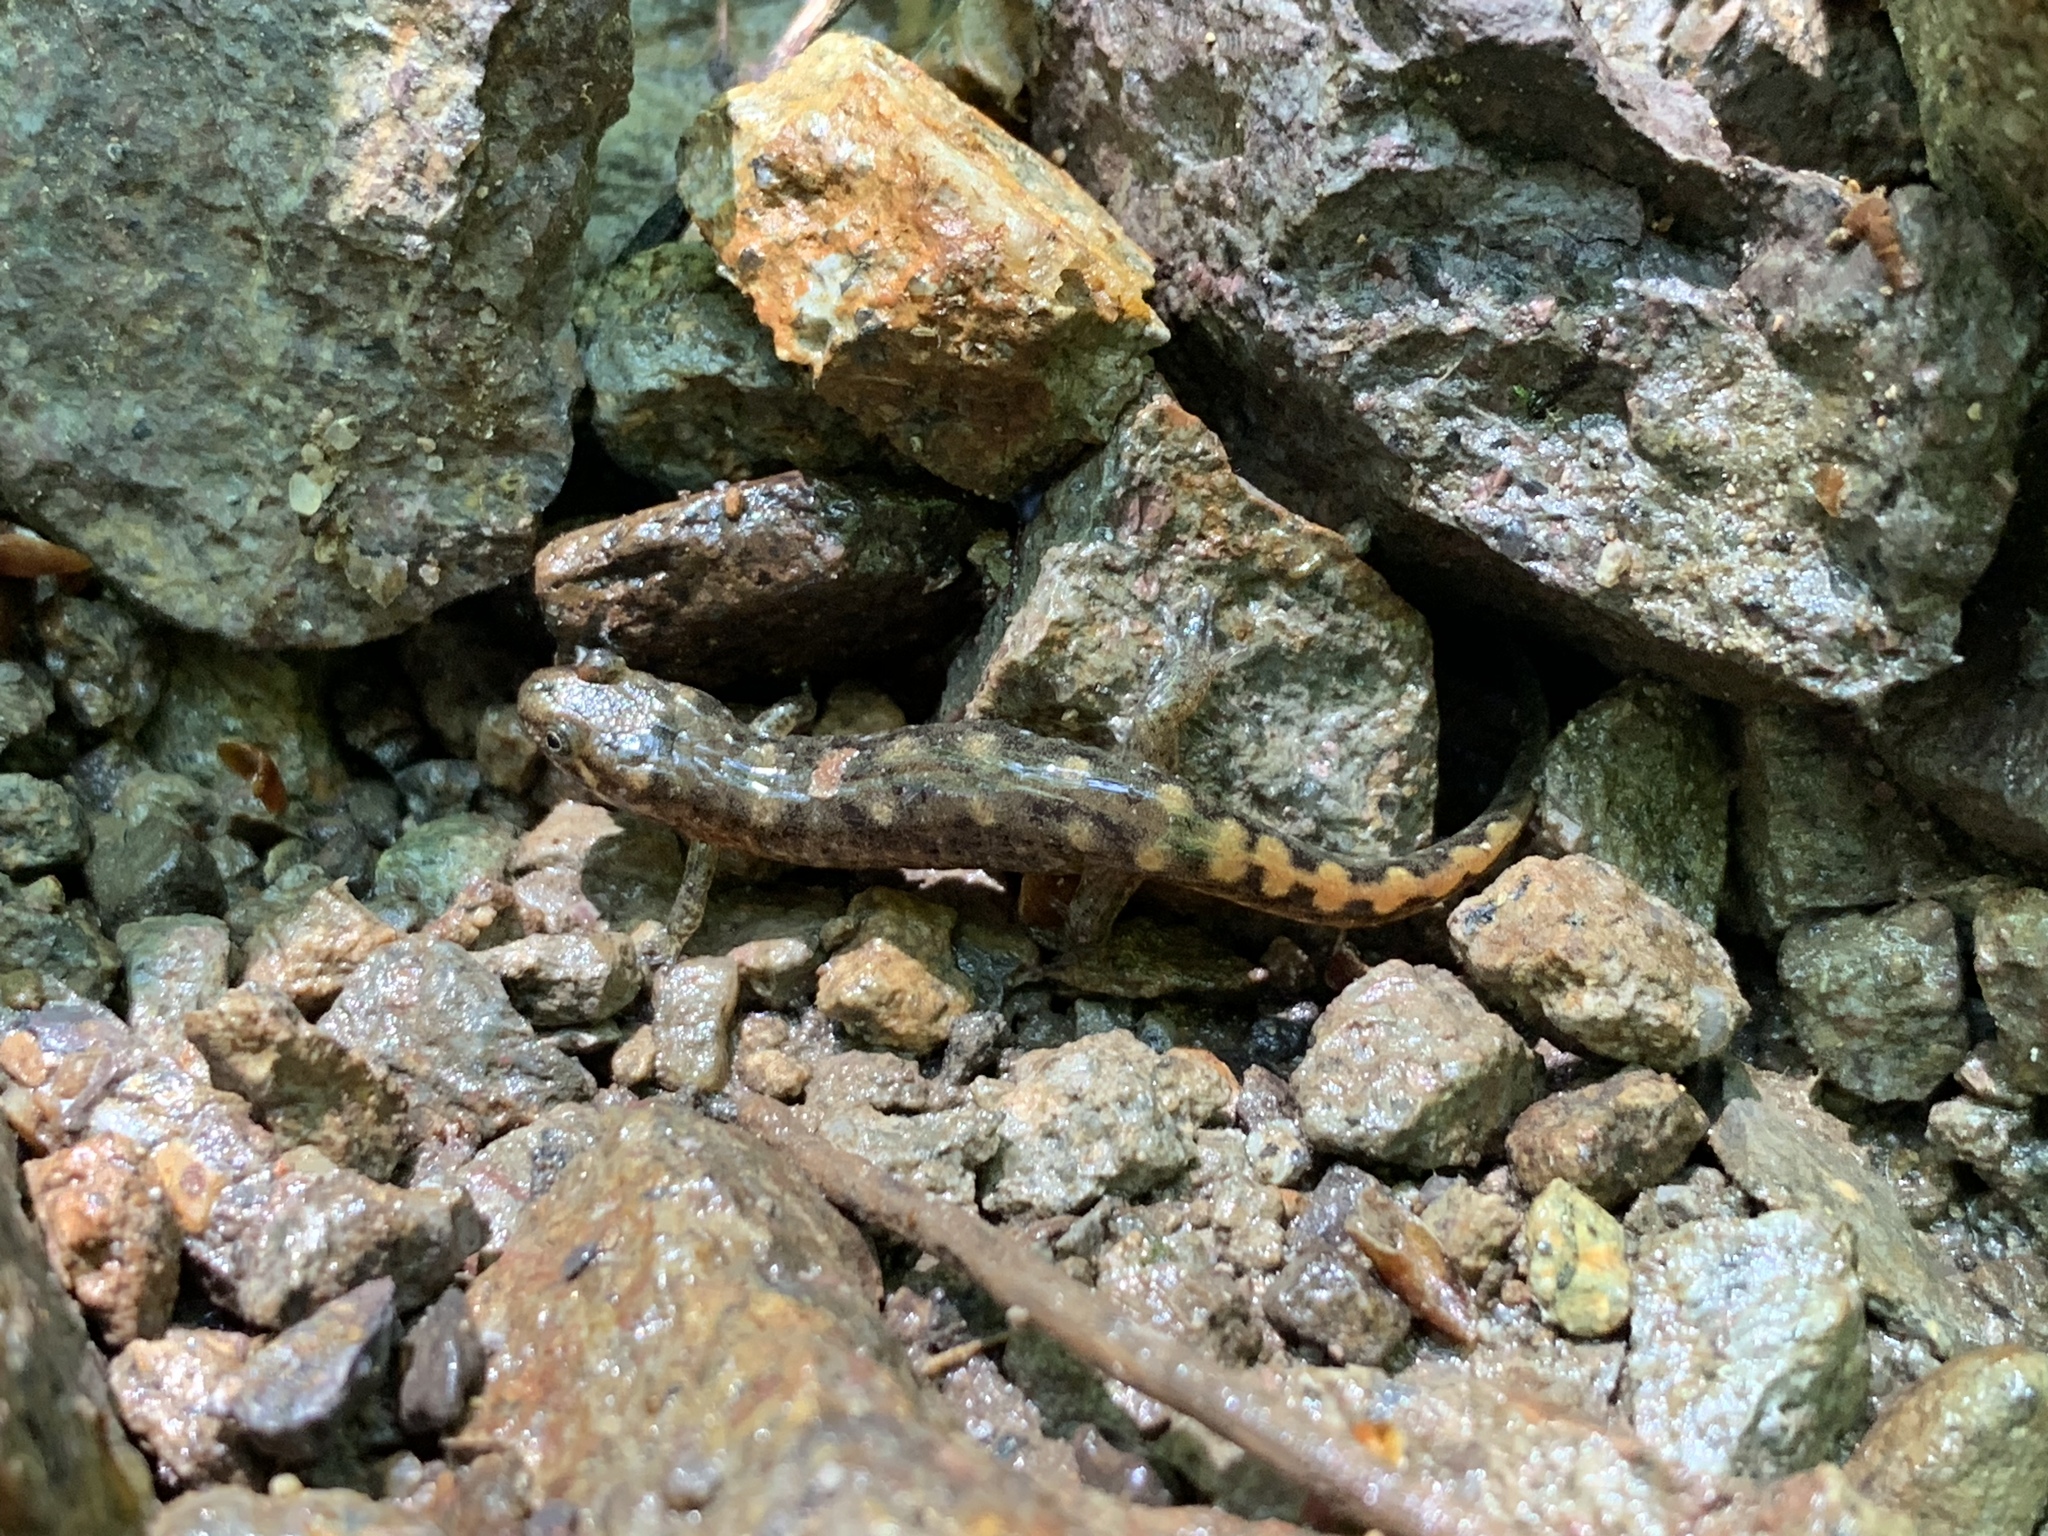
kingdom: Animalia
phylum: Chordata
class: Amphibia
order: Caudata
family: Plethodontidae
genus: Desmognathus
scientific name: Desmognathus monticola
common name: Seal salamander
